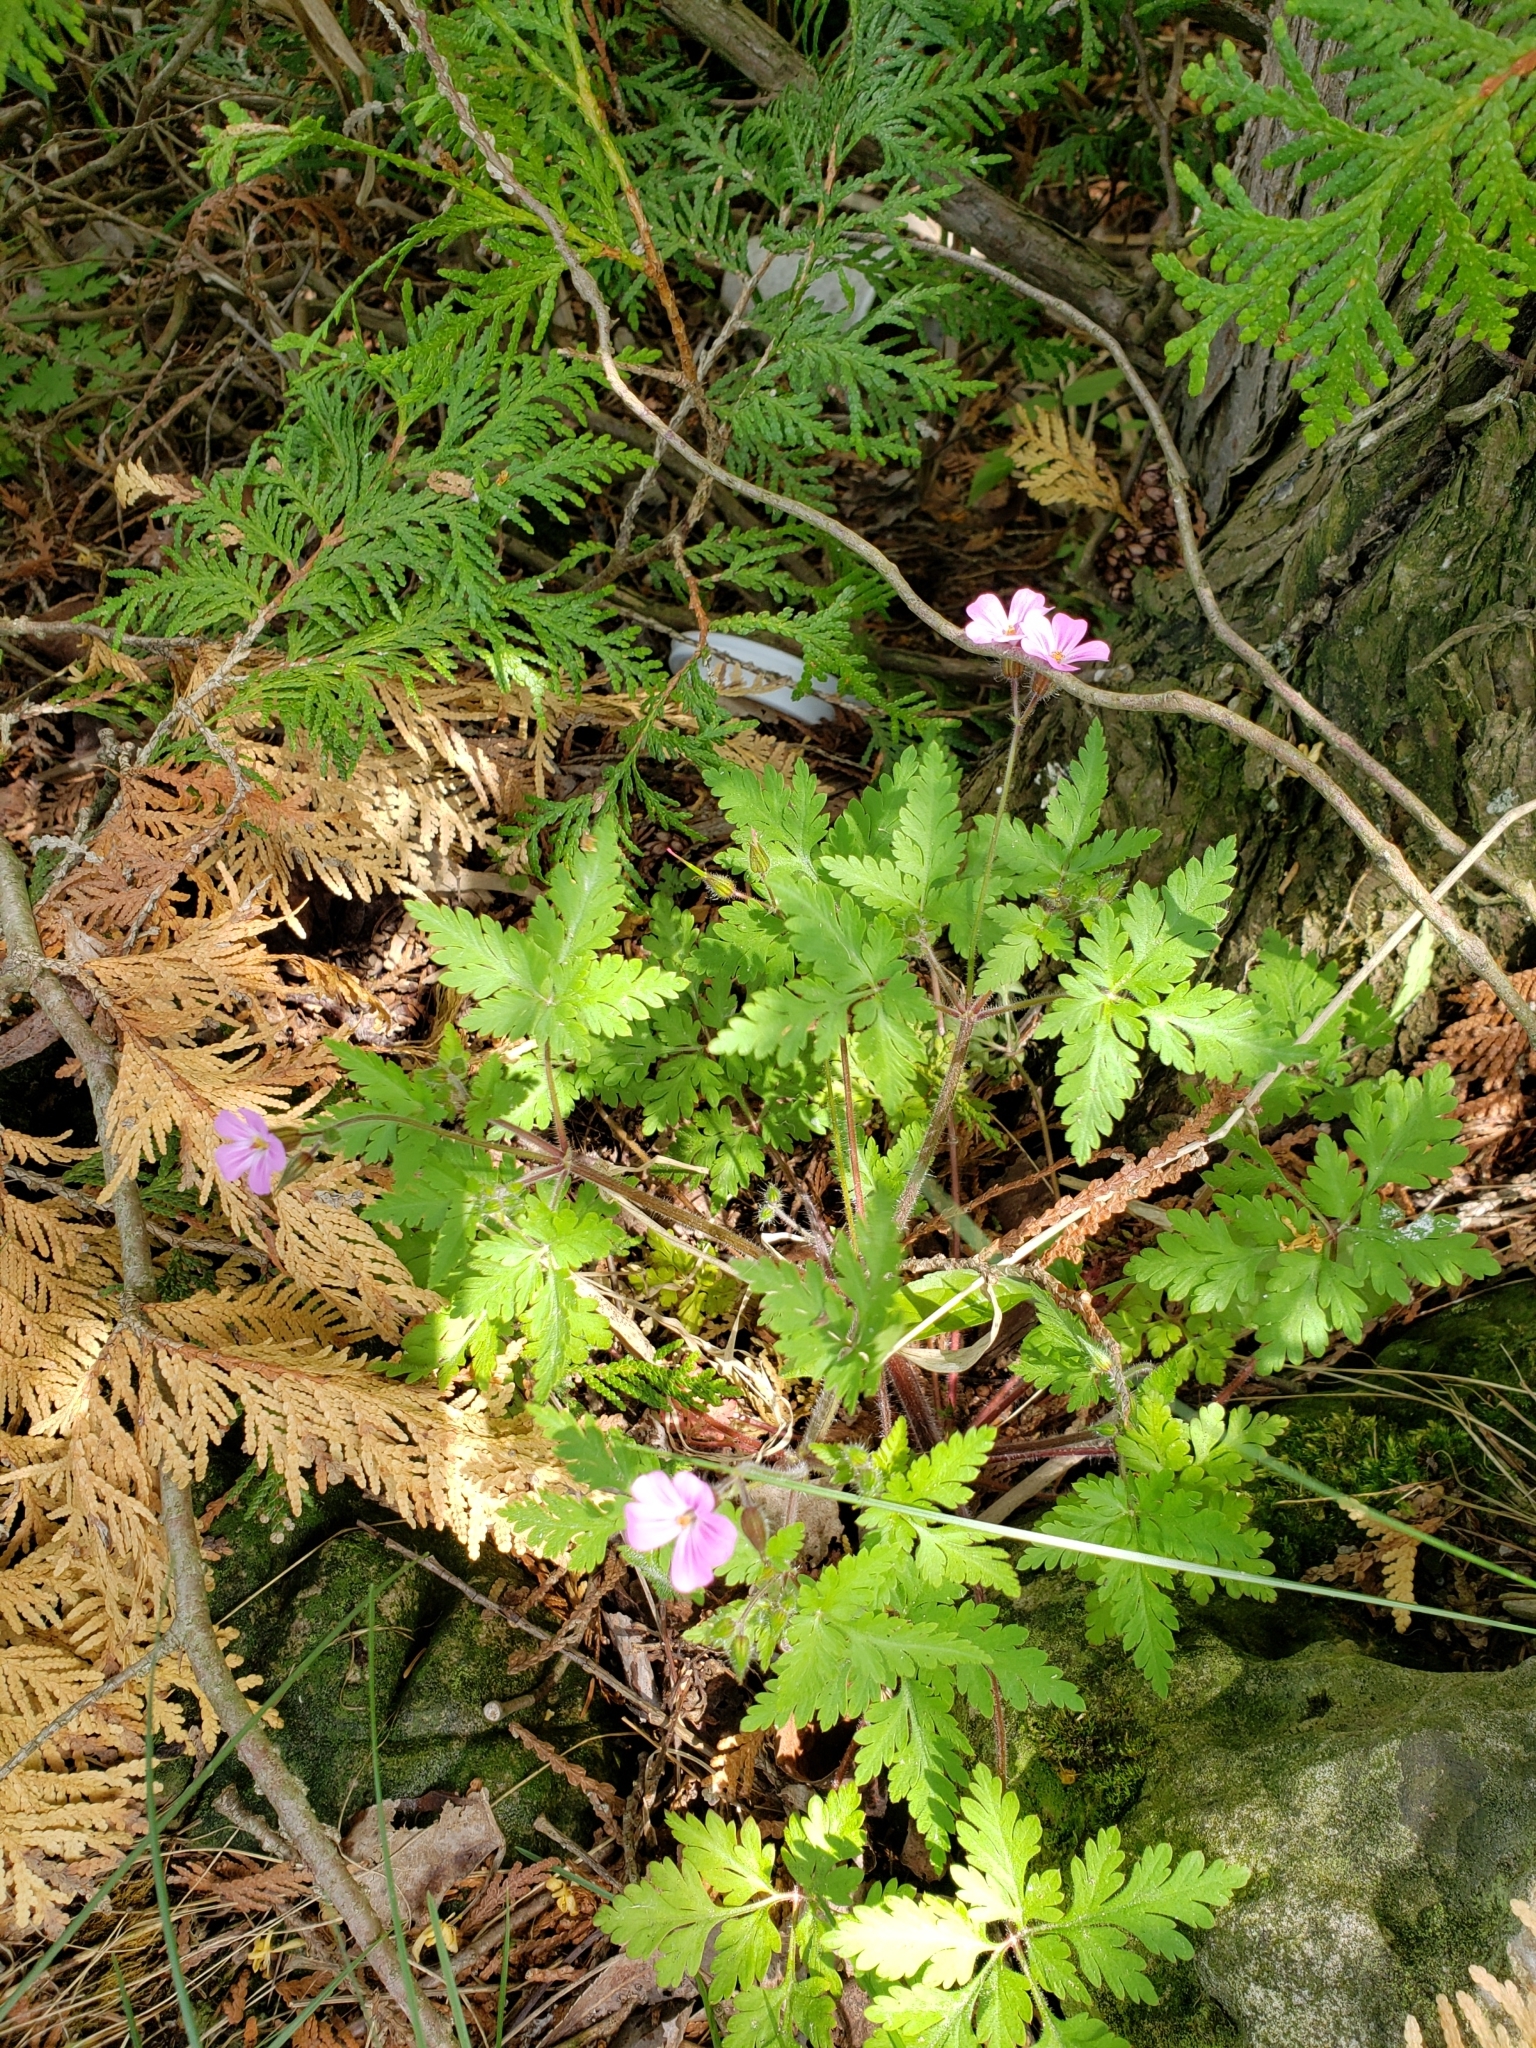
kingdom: Plantae
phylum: Tracheophyta
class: Magnoliopsida
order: Geraniales
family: Geraniaceae
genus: Geranium
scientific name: Geranium robertianum
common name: Herb-robert
